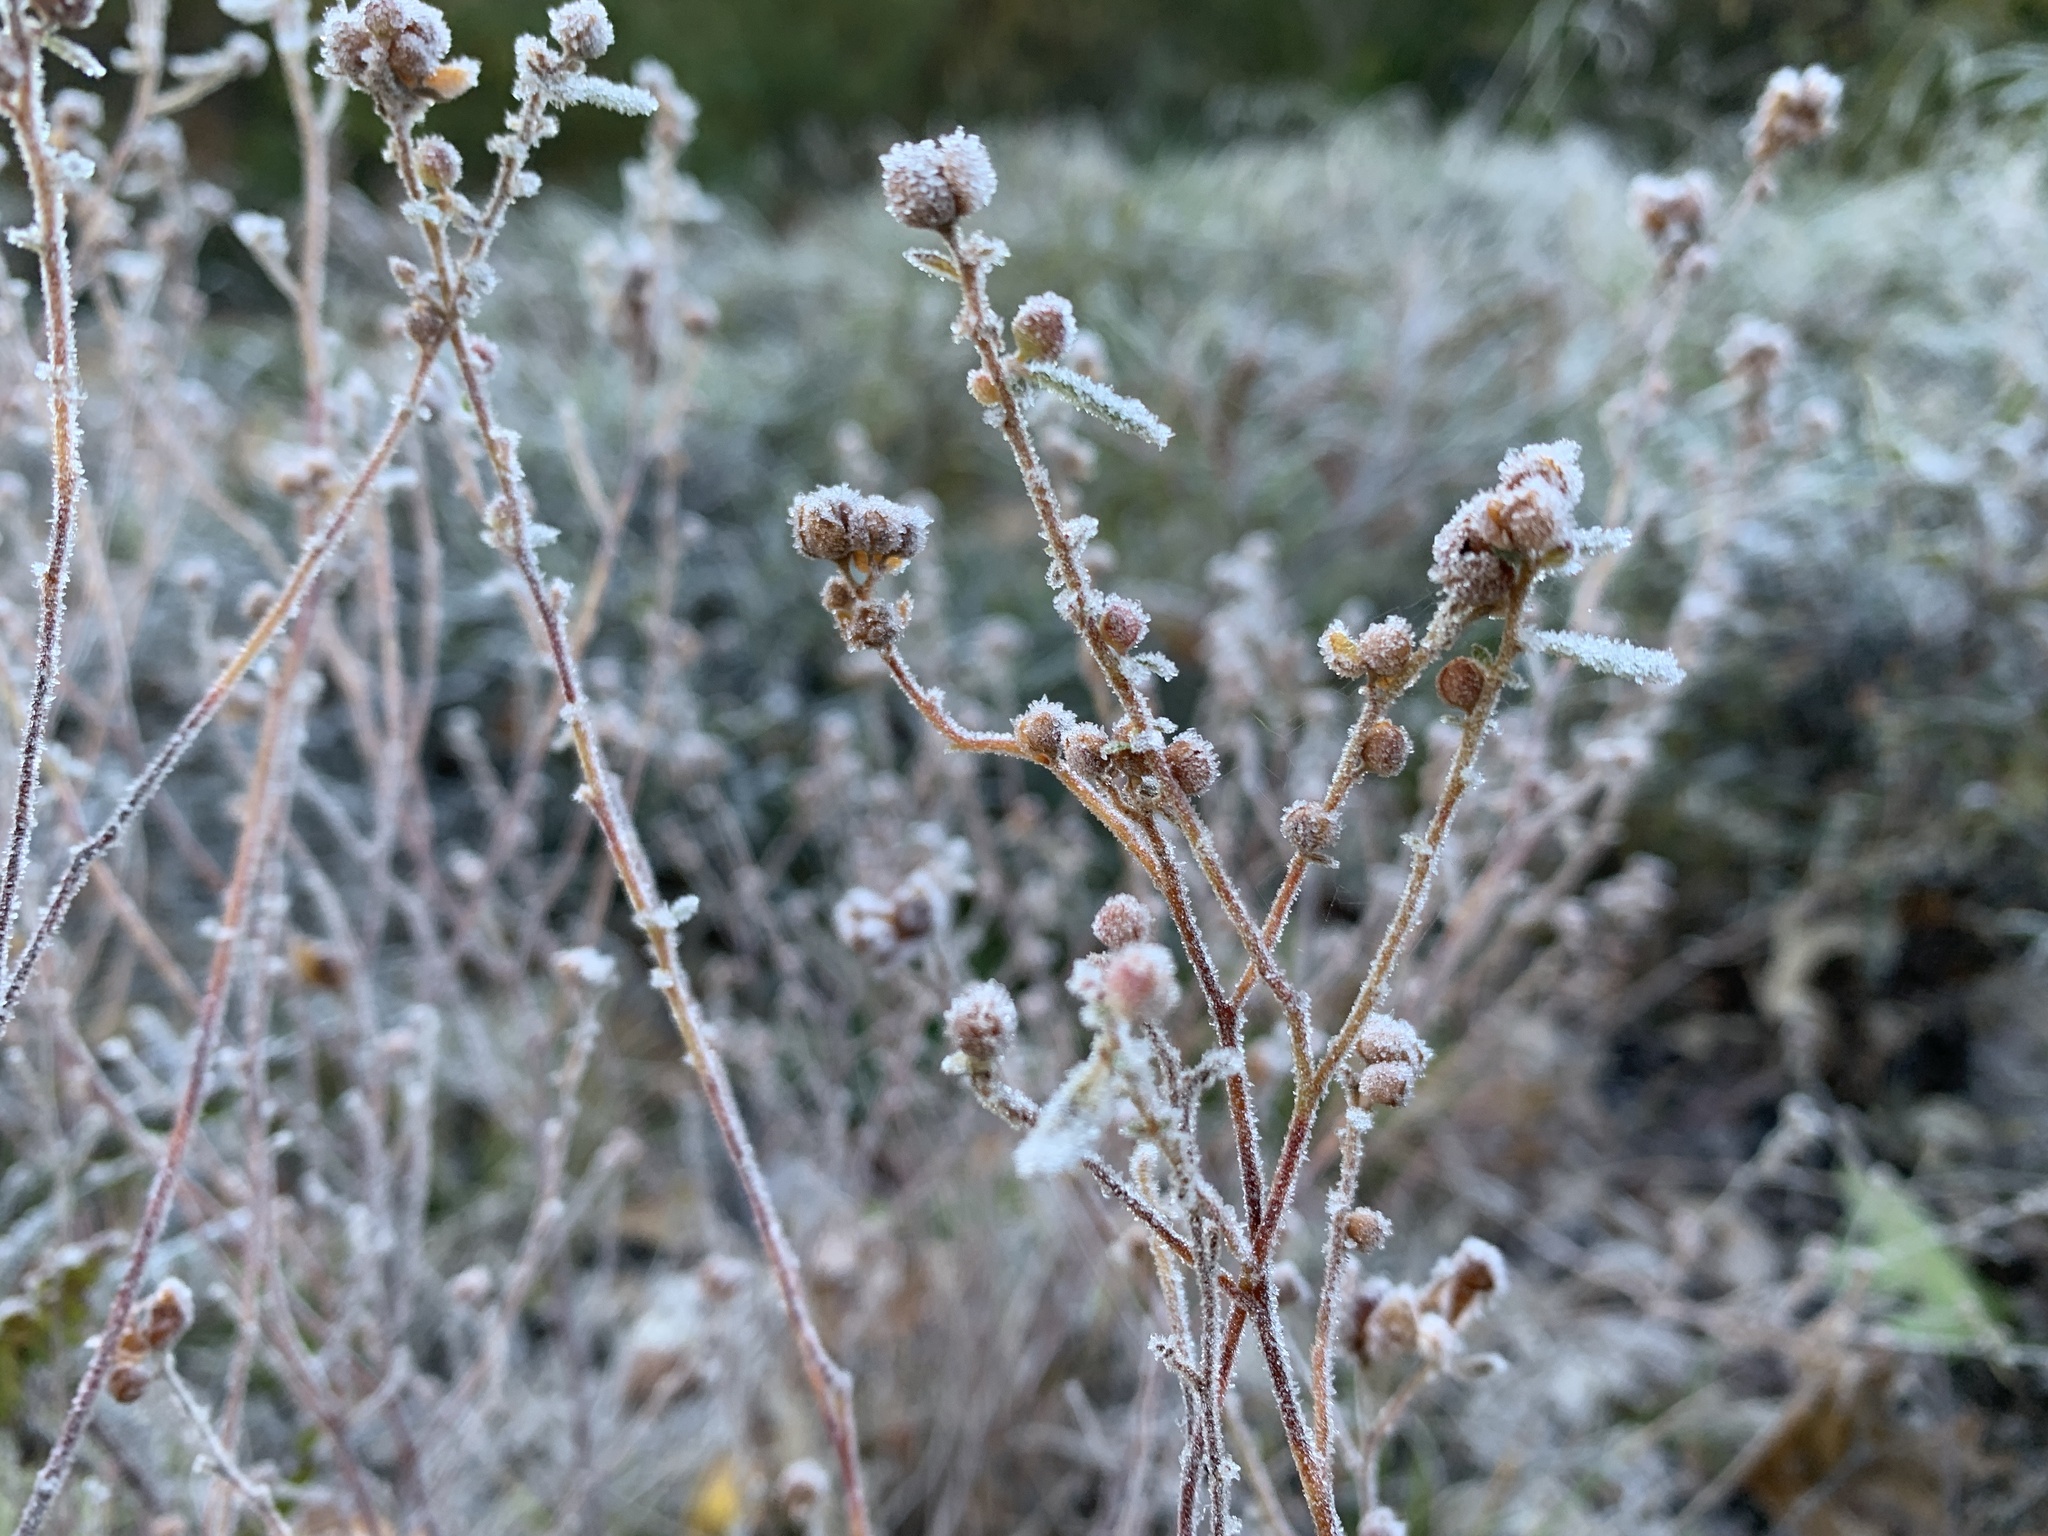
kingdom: Plantae
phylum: Tracheophyta
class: Magnoliopsida
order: Malvales
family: Cistaceae
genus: Crocanthemum
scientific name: Crocanthemum canadense
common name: Canada frostweed
